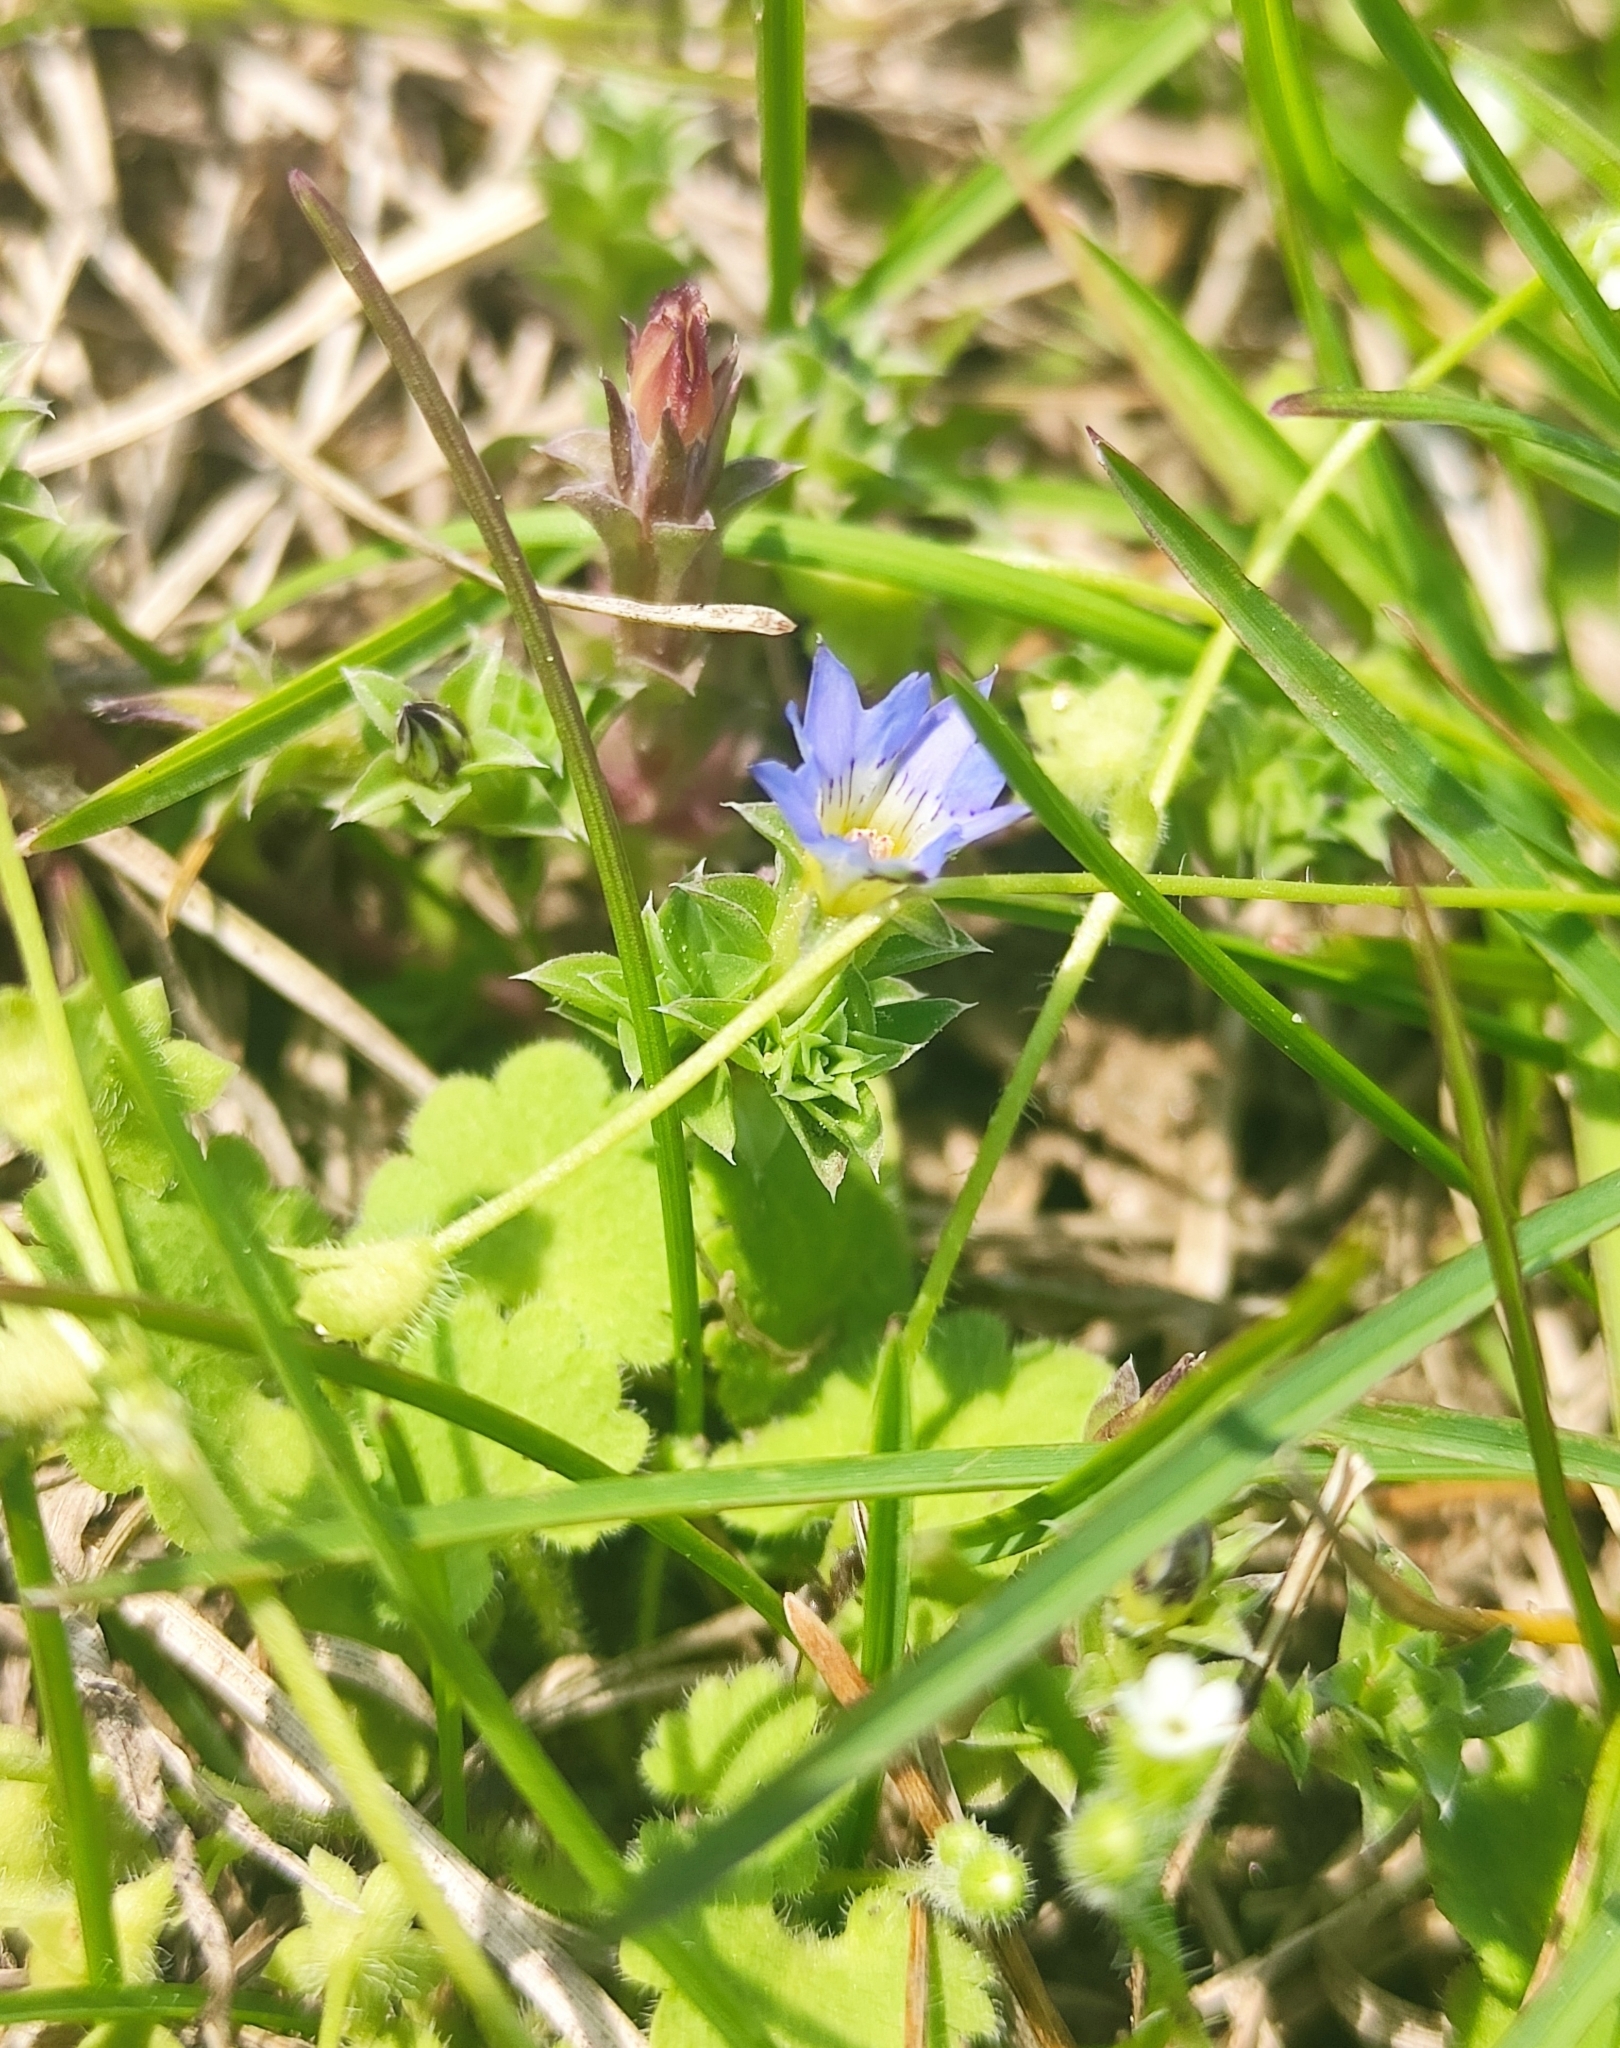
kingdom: Plantae
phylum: Tracheophyta
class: Magnoliopsida
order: Gentianales
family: Gentianaceae
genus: Gentiana
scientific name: Gentiana squarrosa
